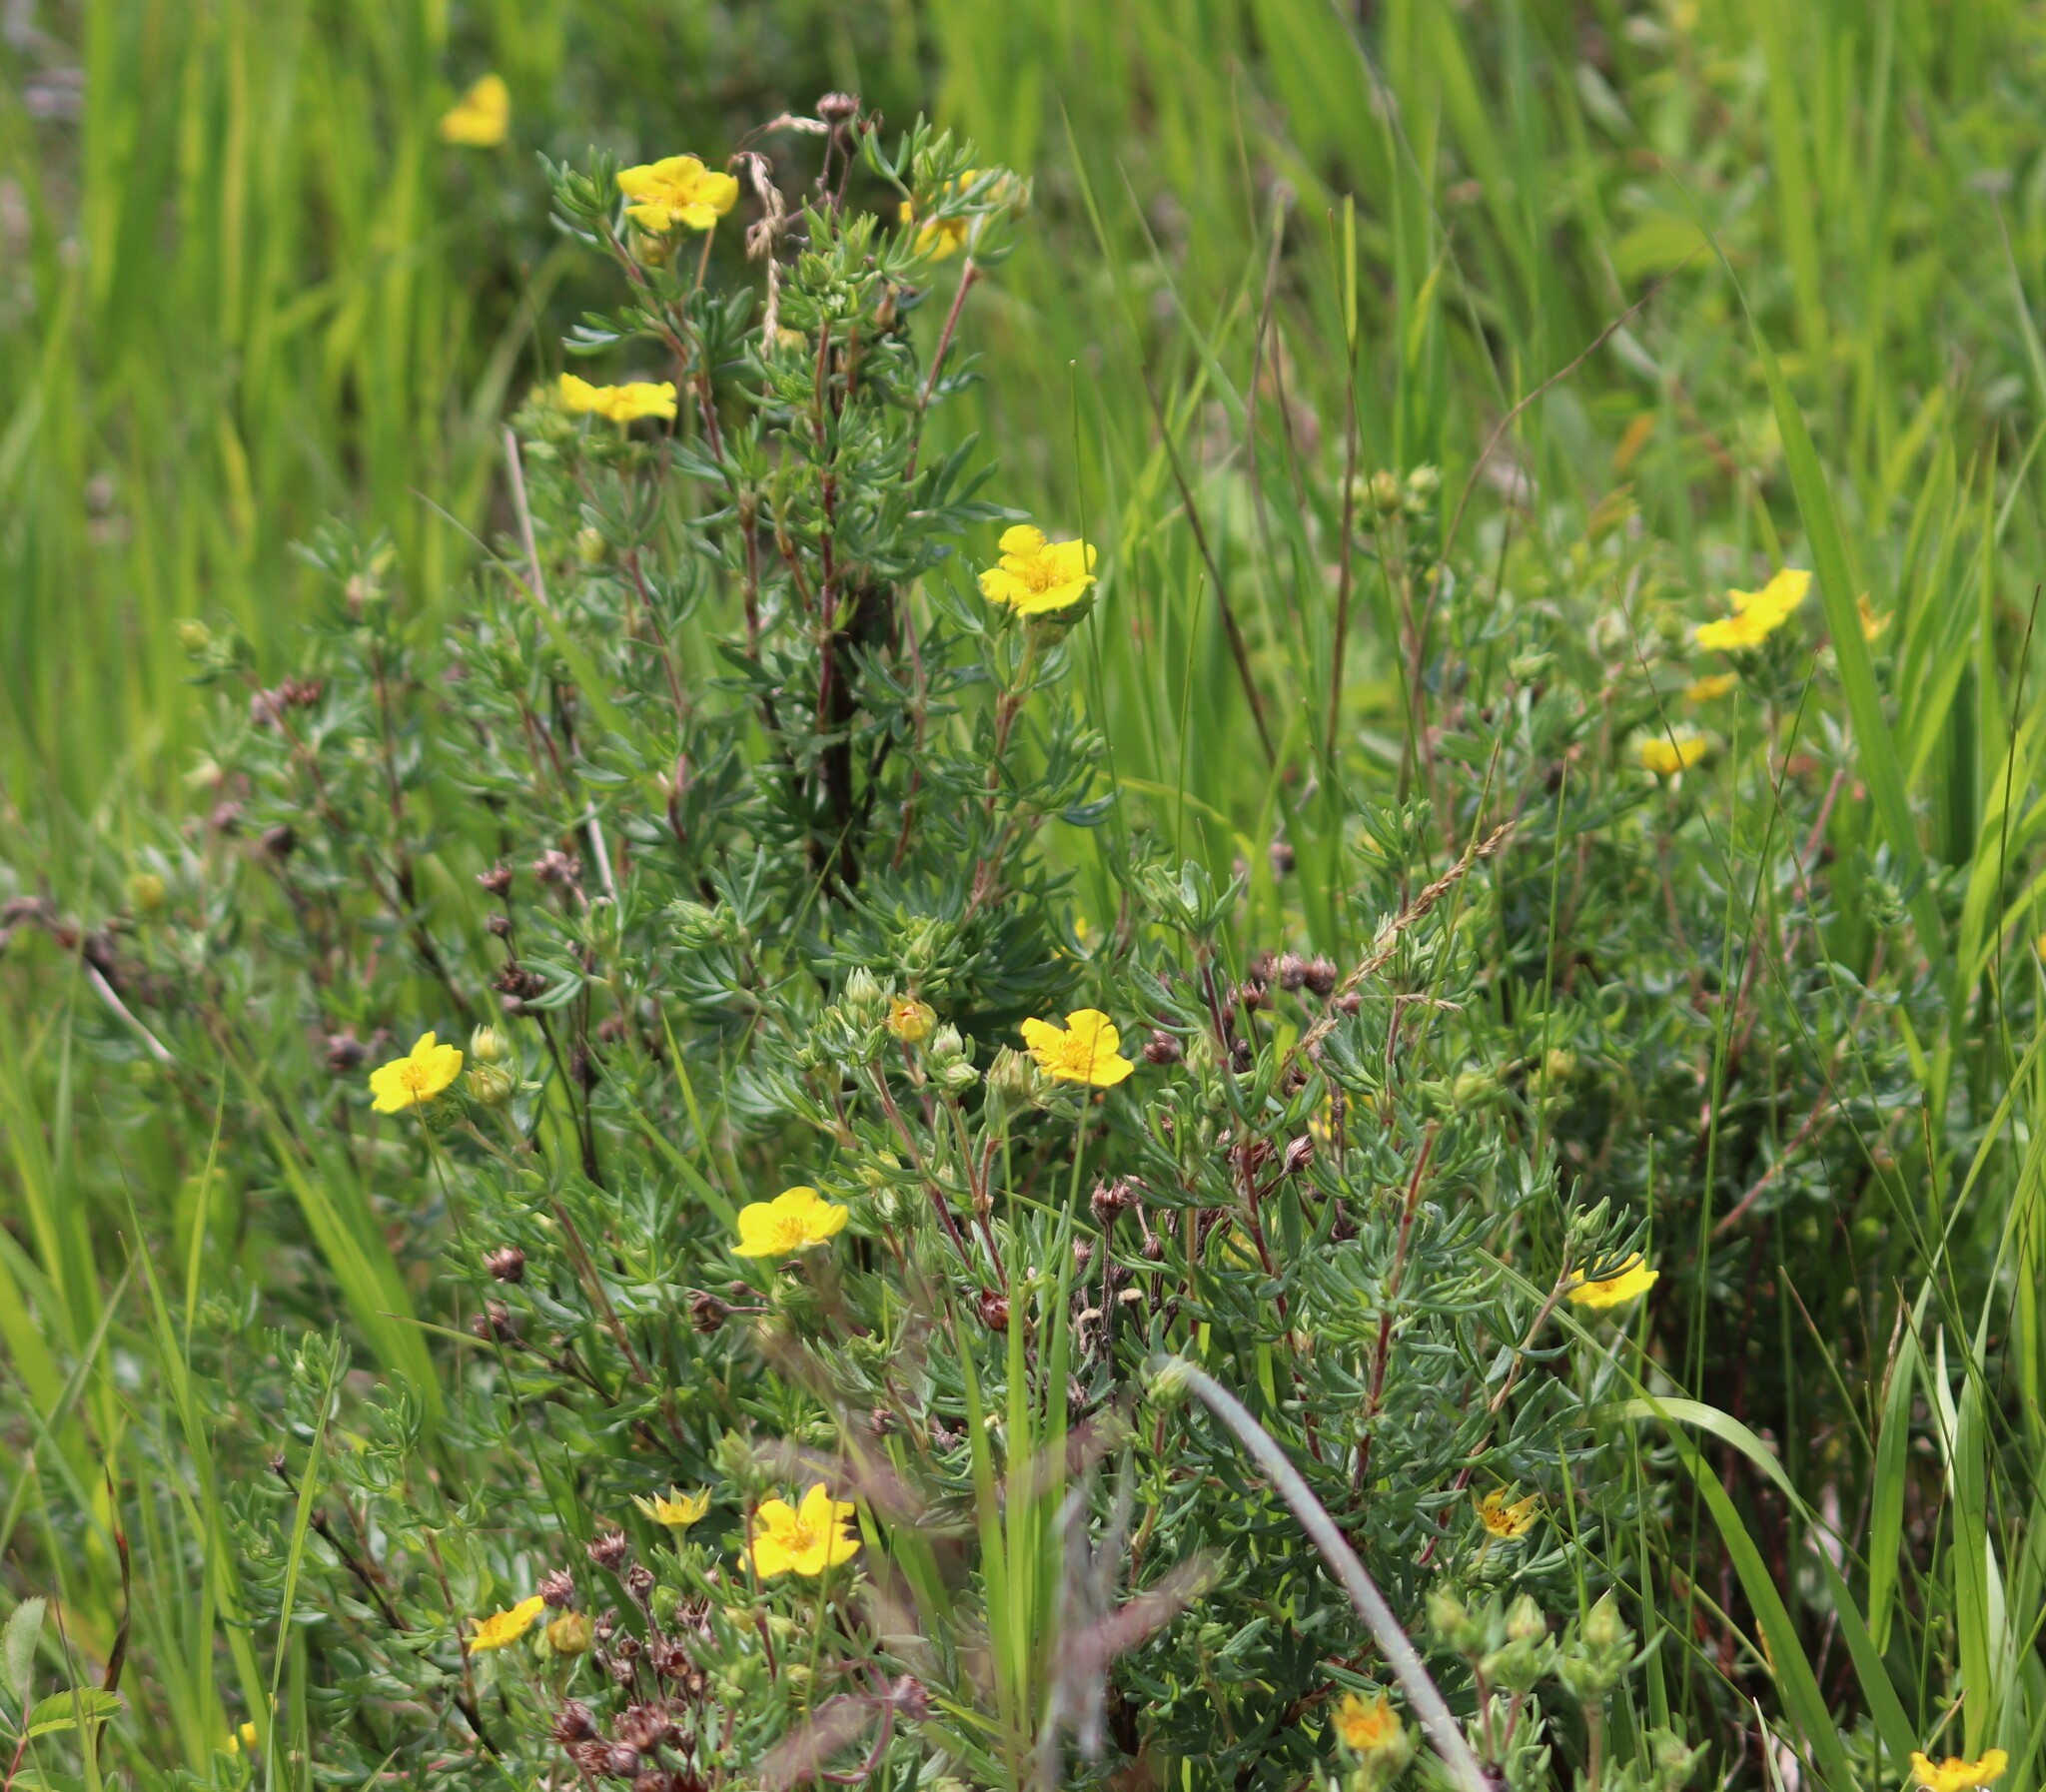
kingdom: Plantae
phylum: Tracheophyta
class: Magnoliopsida
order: Rosales
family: Rosaceae
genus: Dasiphora
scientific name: Dasiphora fruticosa
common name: Shrubby cinquefoil
